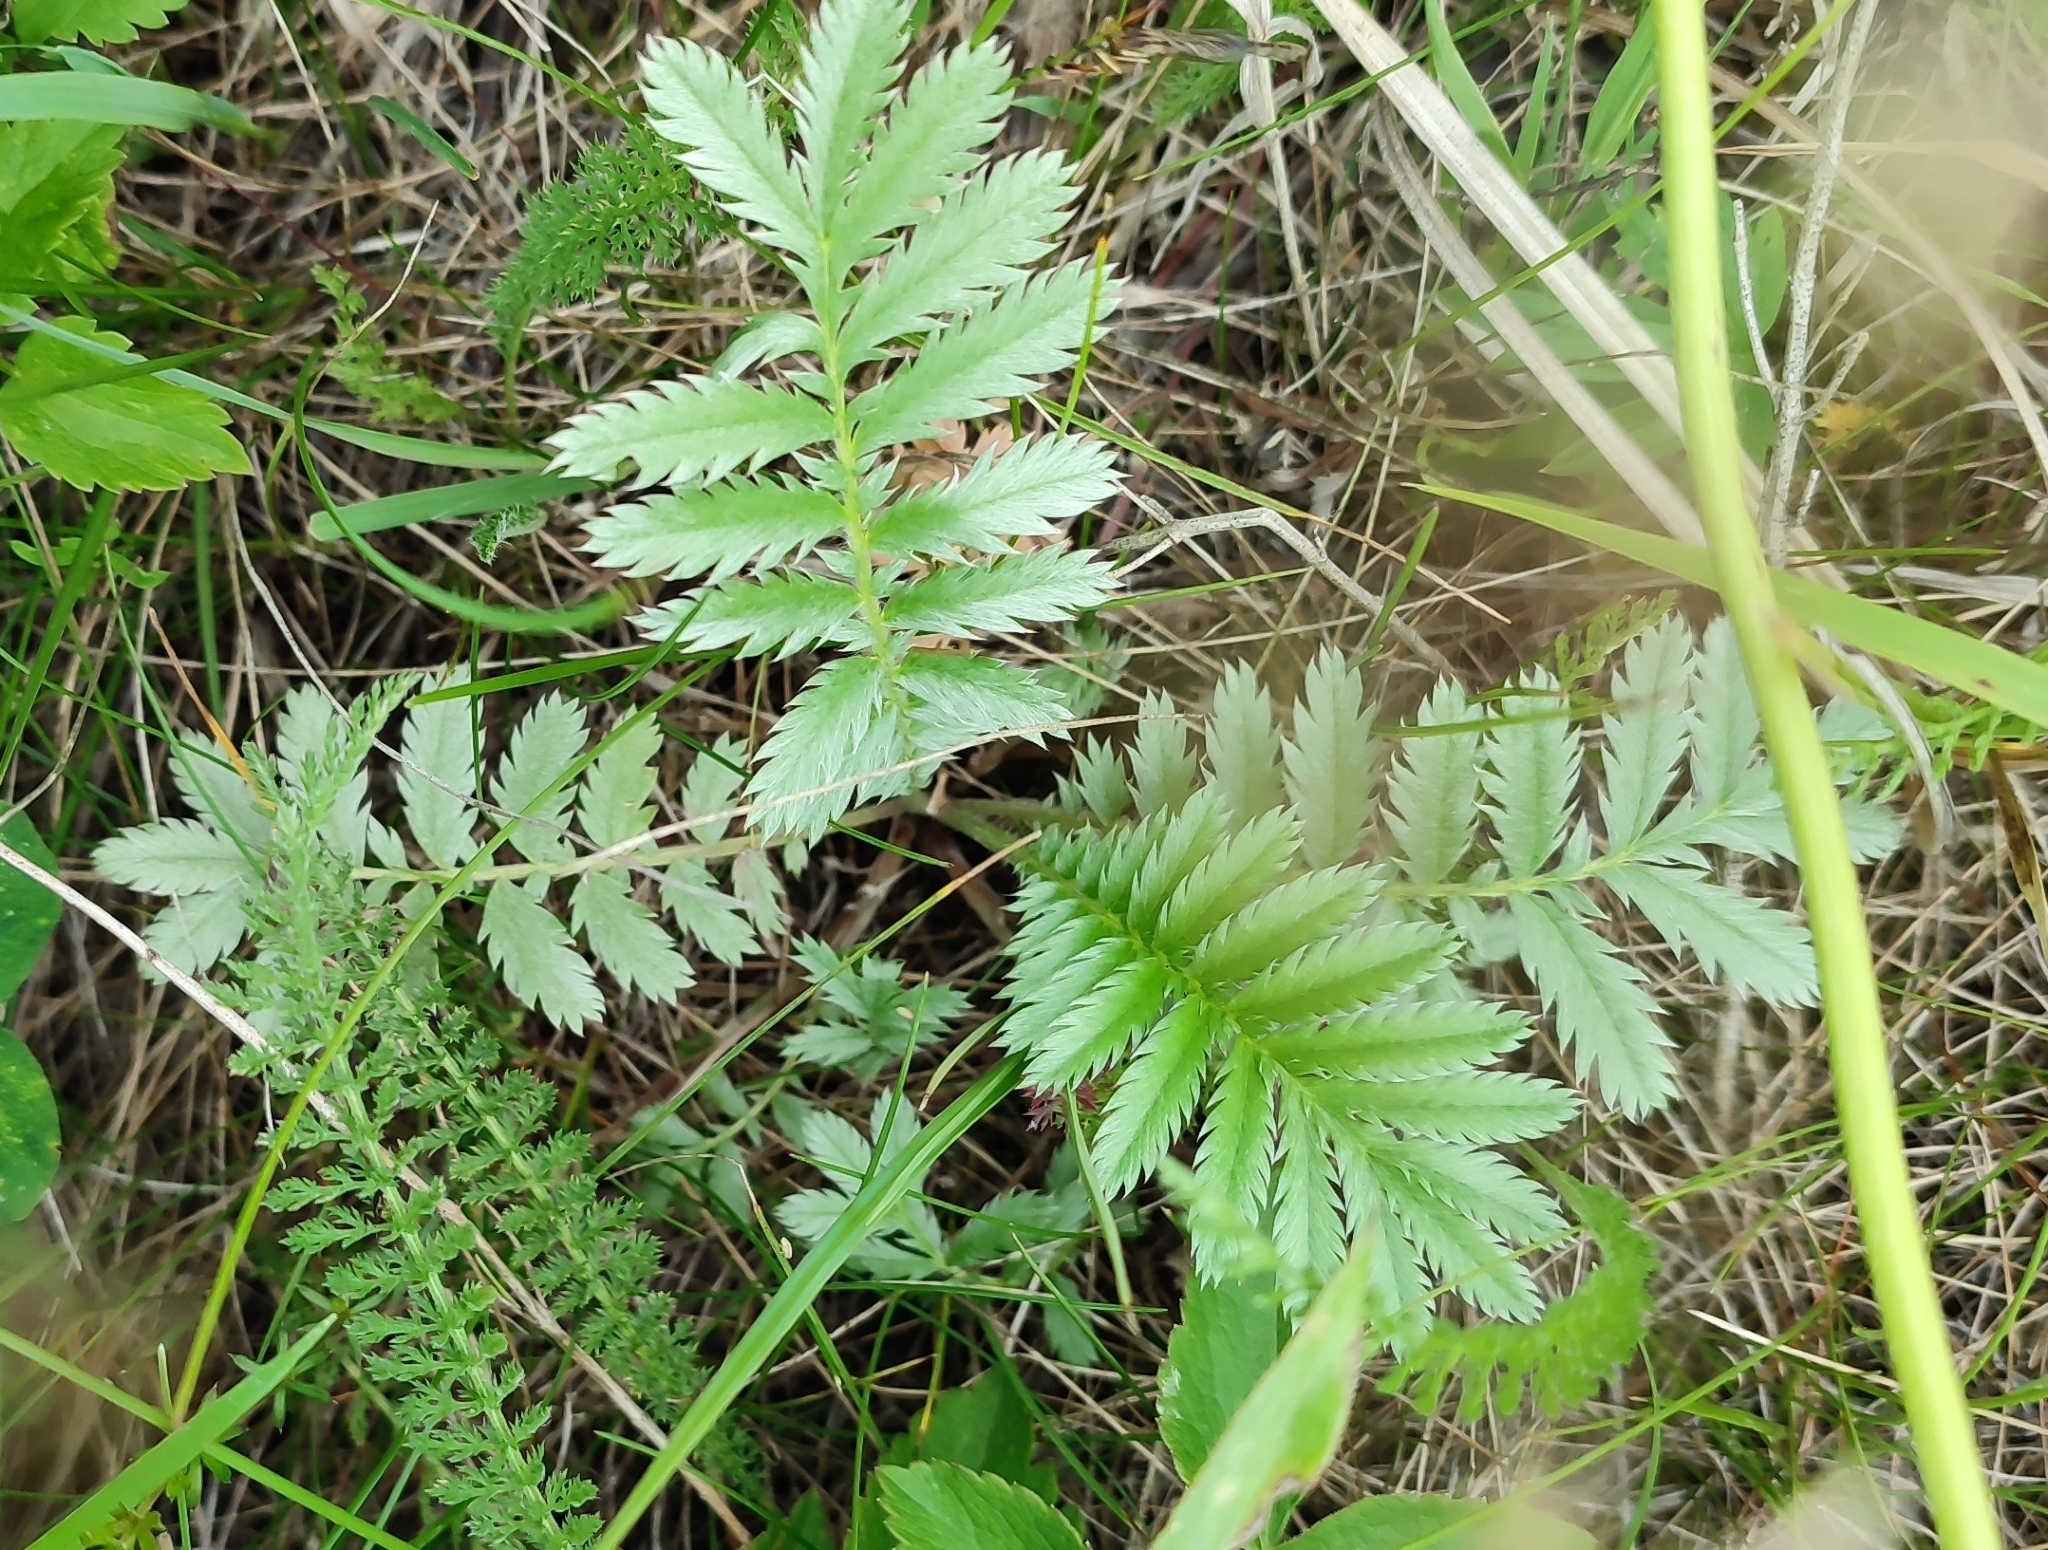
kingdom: Plantae
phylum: Tracheophyta
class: Magnoliopsida
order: Rosales
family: Rosaceae
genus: Argentina
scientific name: Argentina anserina
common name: Common silverweed
